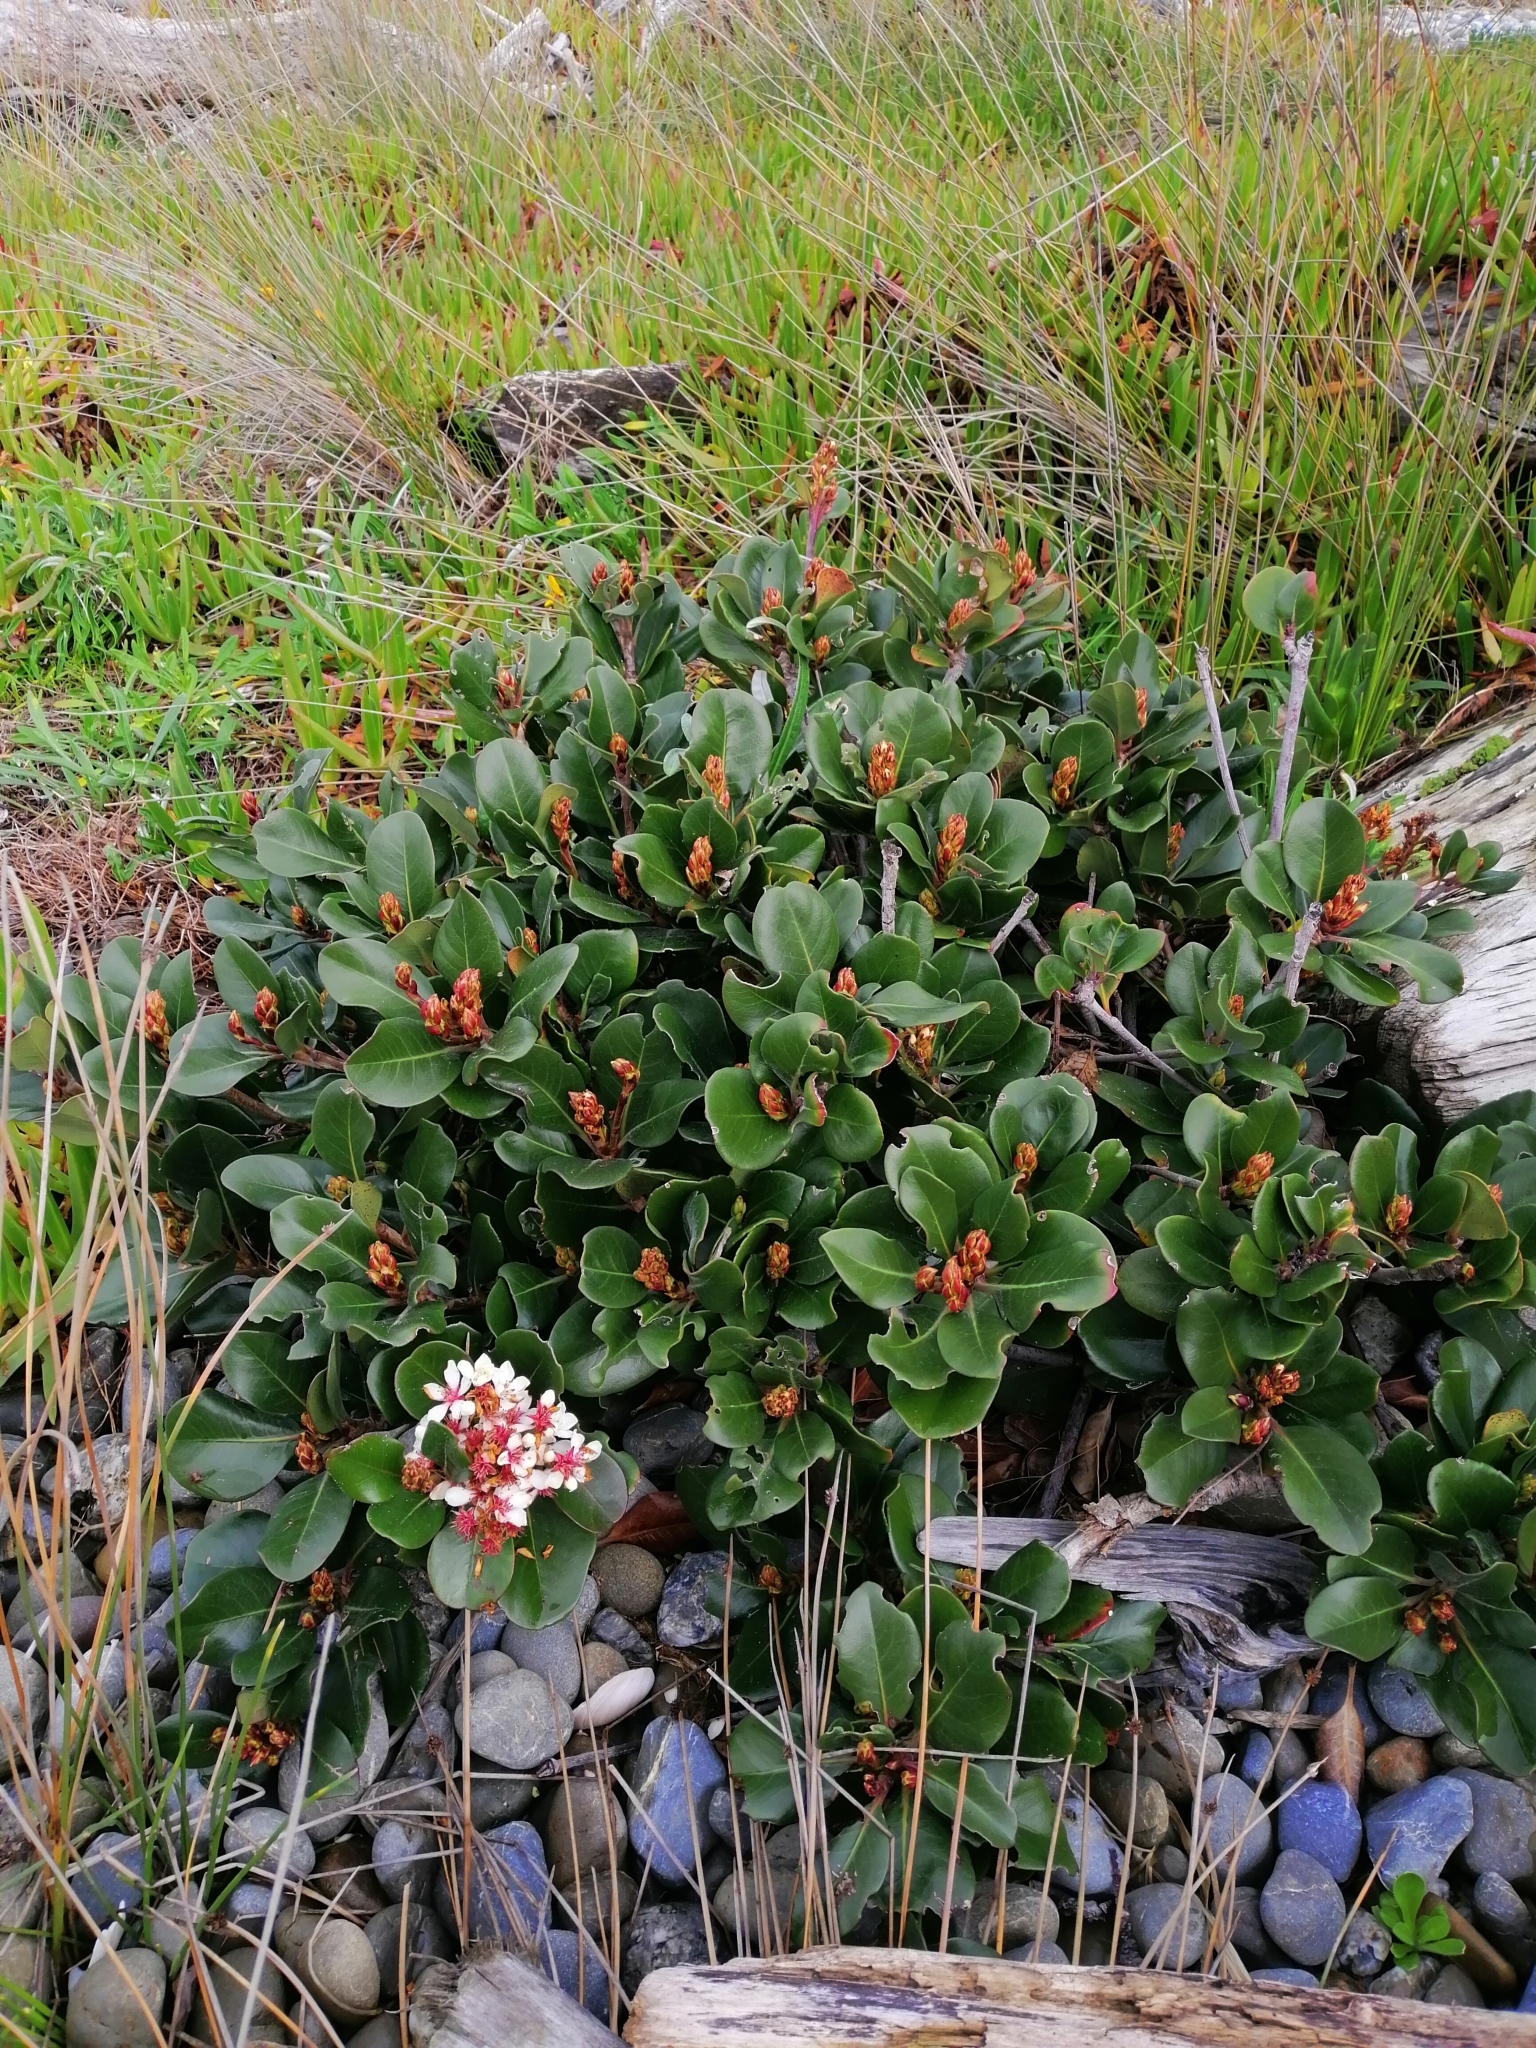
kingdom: Plantae
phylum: Tracheophyta
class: Magnoliopsida
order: Rosales
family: Rosaceae
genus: Rhaphiolepis
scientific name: Rhaphiolepis indica
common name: India-hawthorn
